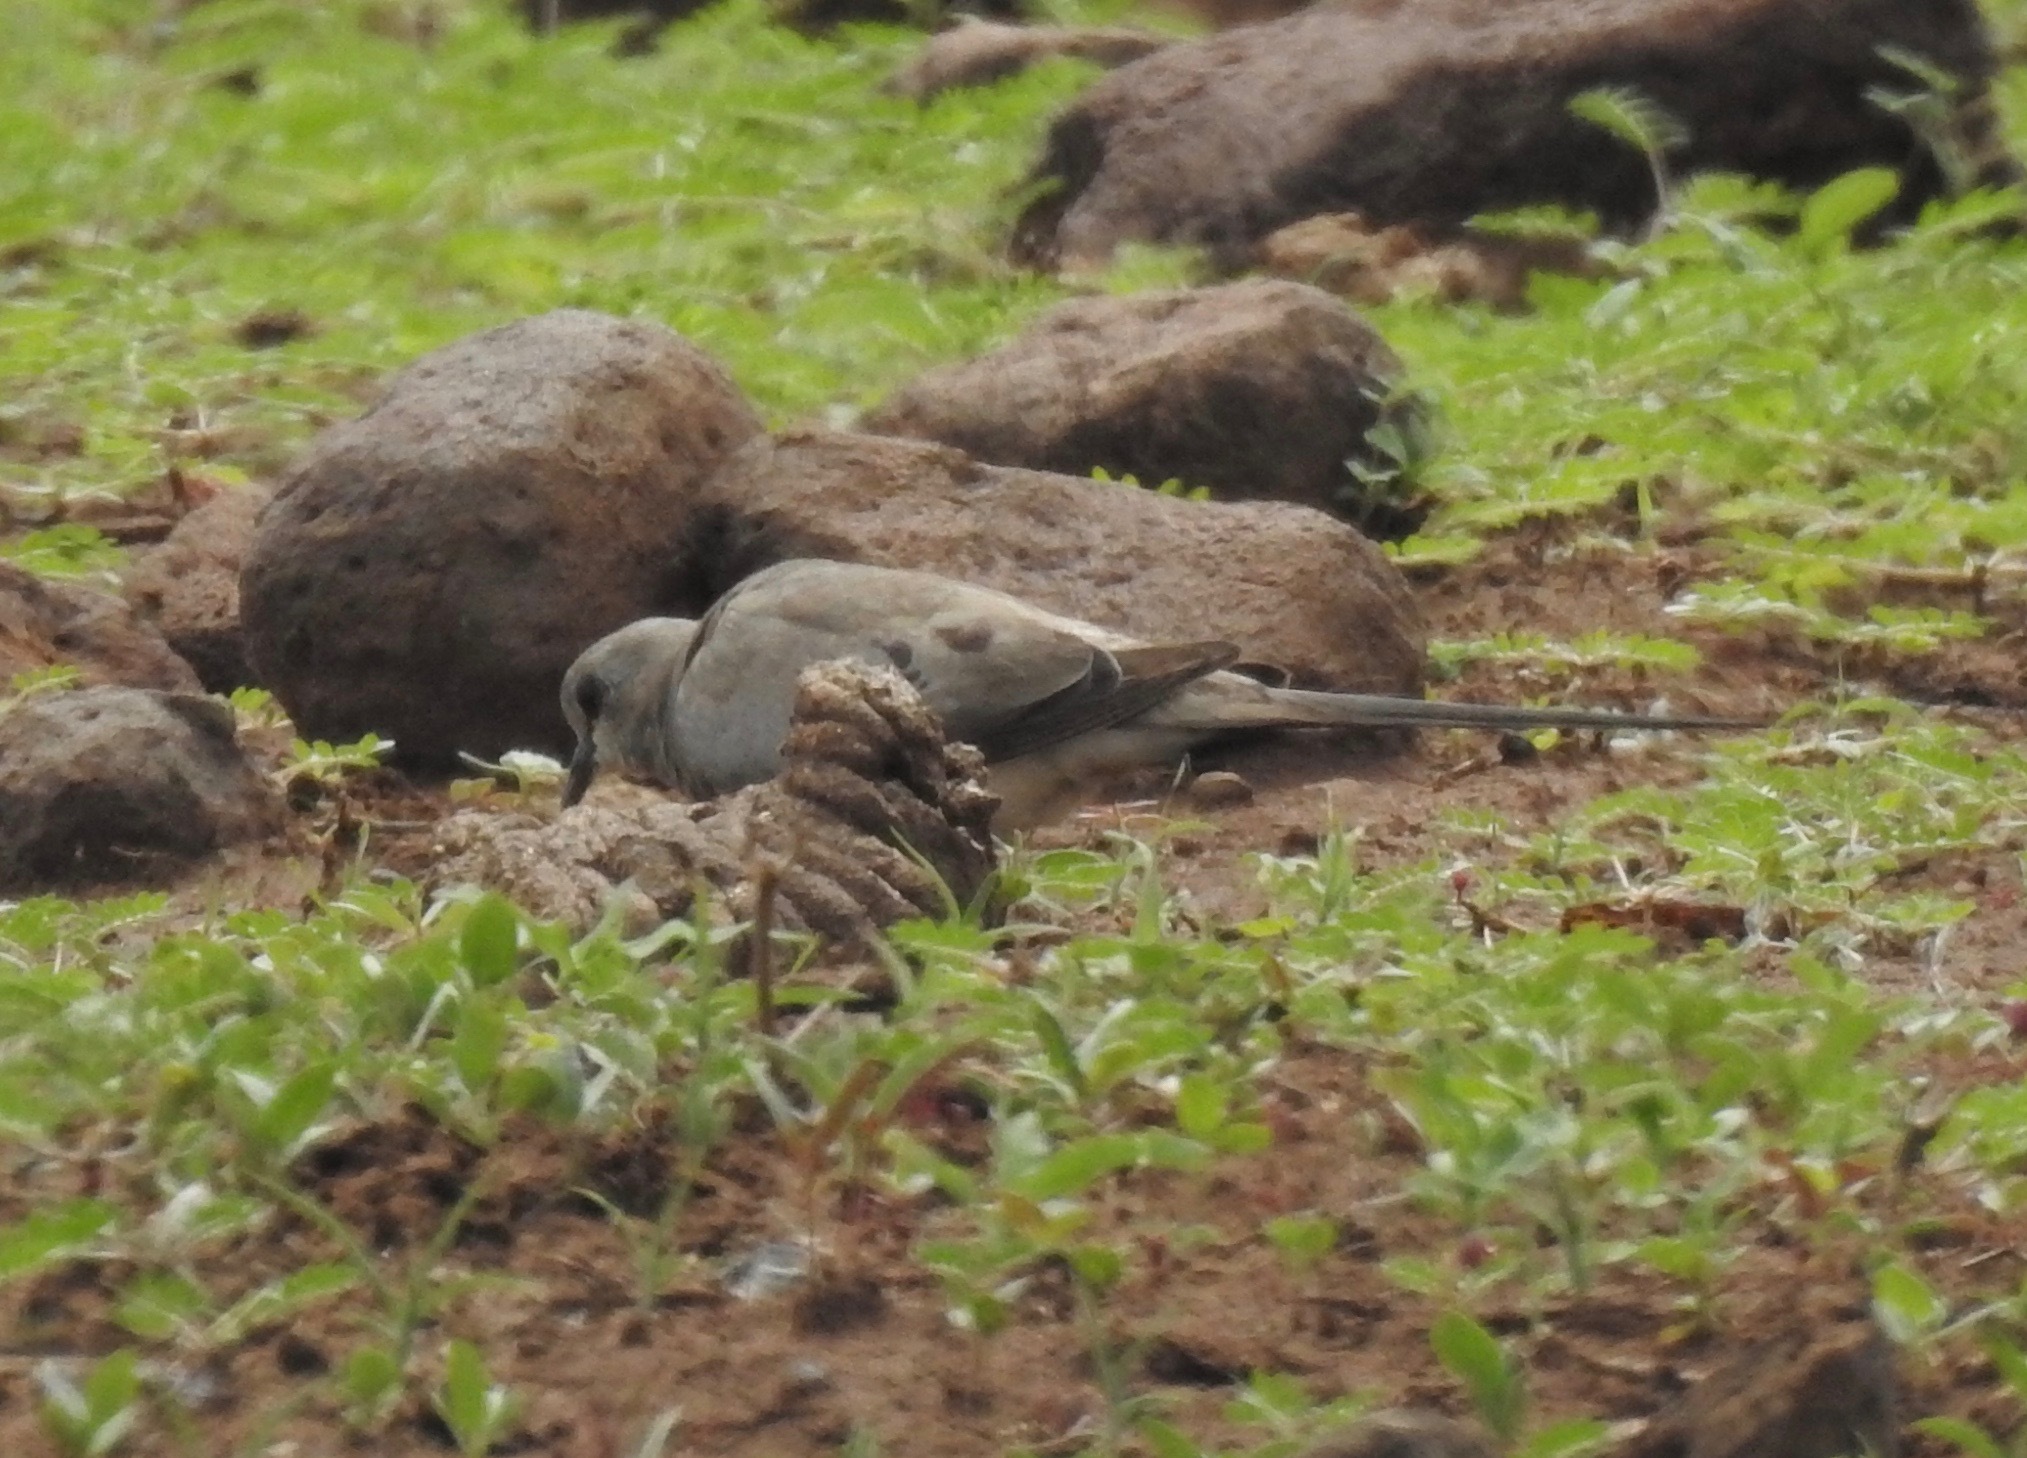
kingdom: Animalia
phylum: Chordata
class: Aves
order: Columbiformes
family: Columbidae
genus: Oena
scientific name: Oena capensis
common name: Namaqua dove
